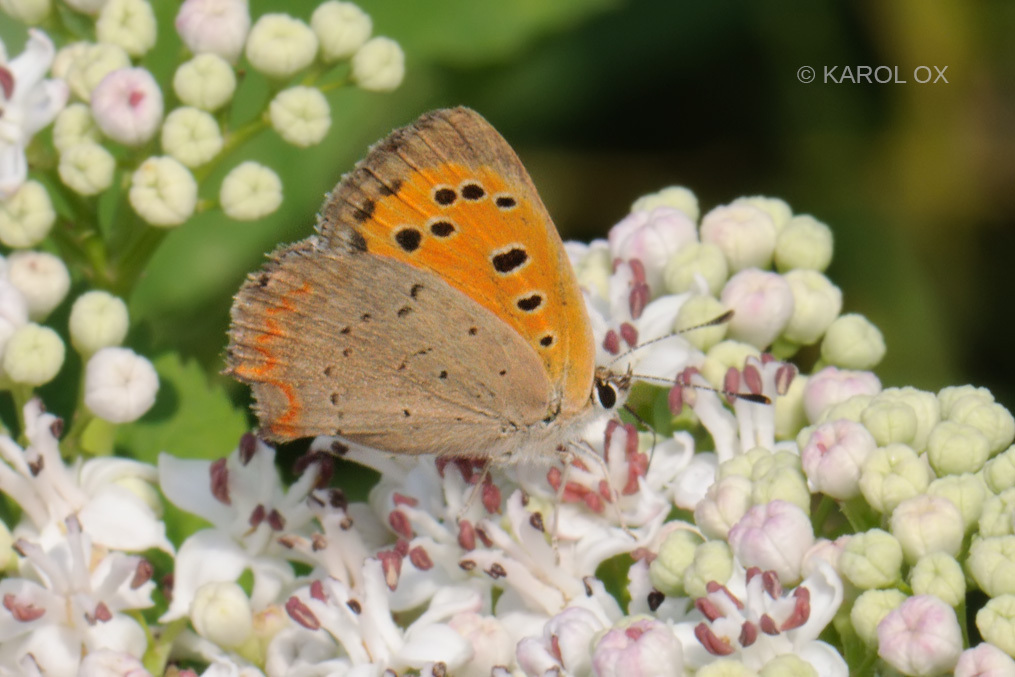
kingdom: Animalia
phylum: Arthropoda
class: Insecta
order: Lepidoptera
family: Lycaenidae
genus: Lycaena
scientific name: Lycaena phlaeas
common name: Small copper
